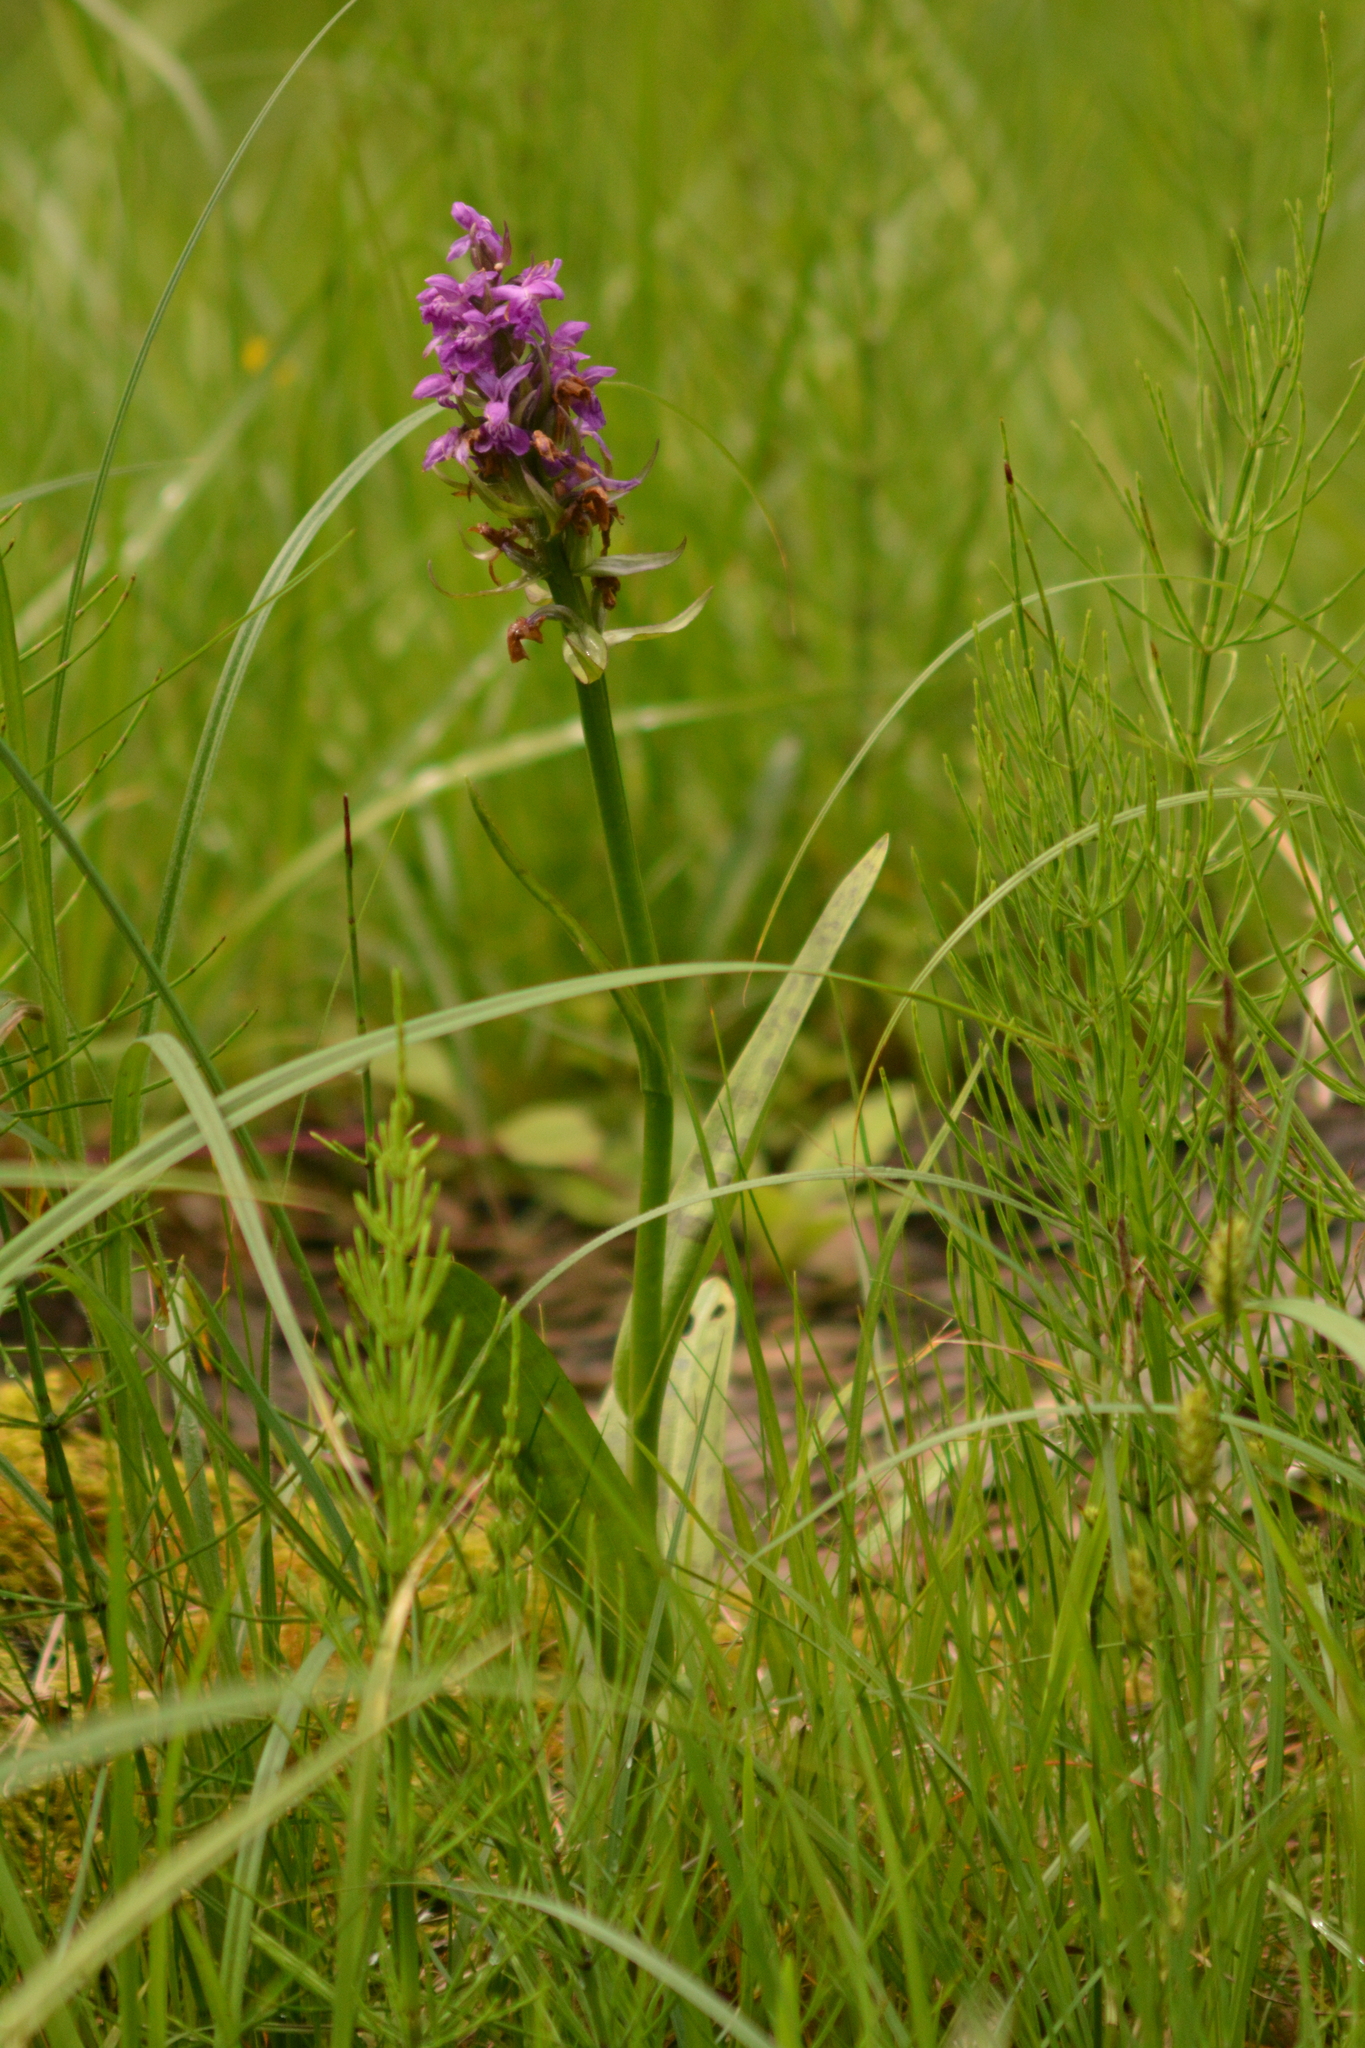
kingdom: Plantae
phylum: Tracheophyta
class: Liliopsida
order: Asparagales
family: Orchidaceae
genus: Dactylorhiza
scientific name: Dactylorhiza incarnata
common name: Early marsh-orchid
